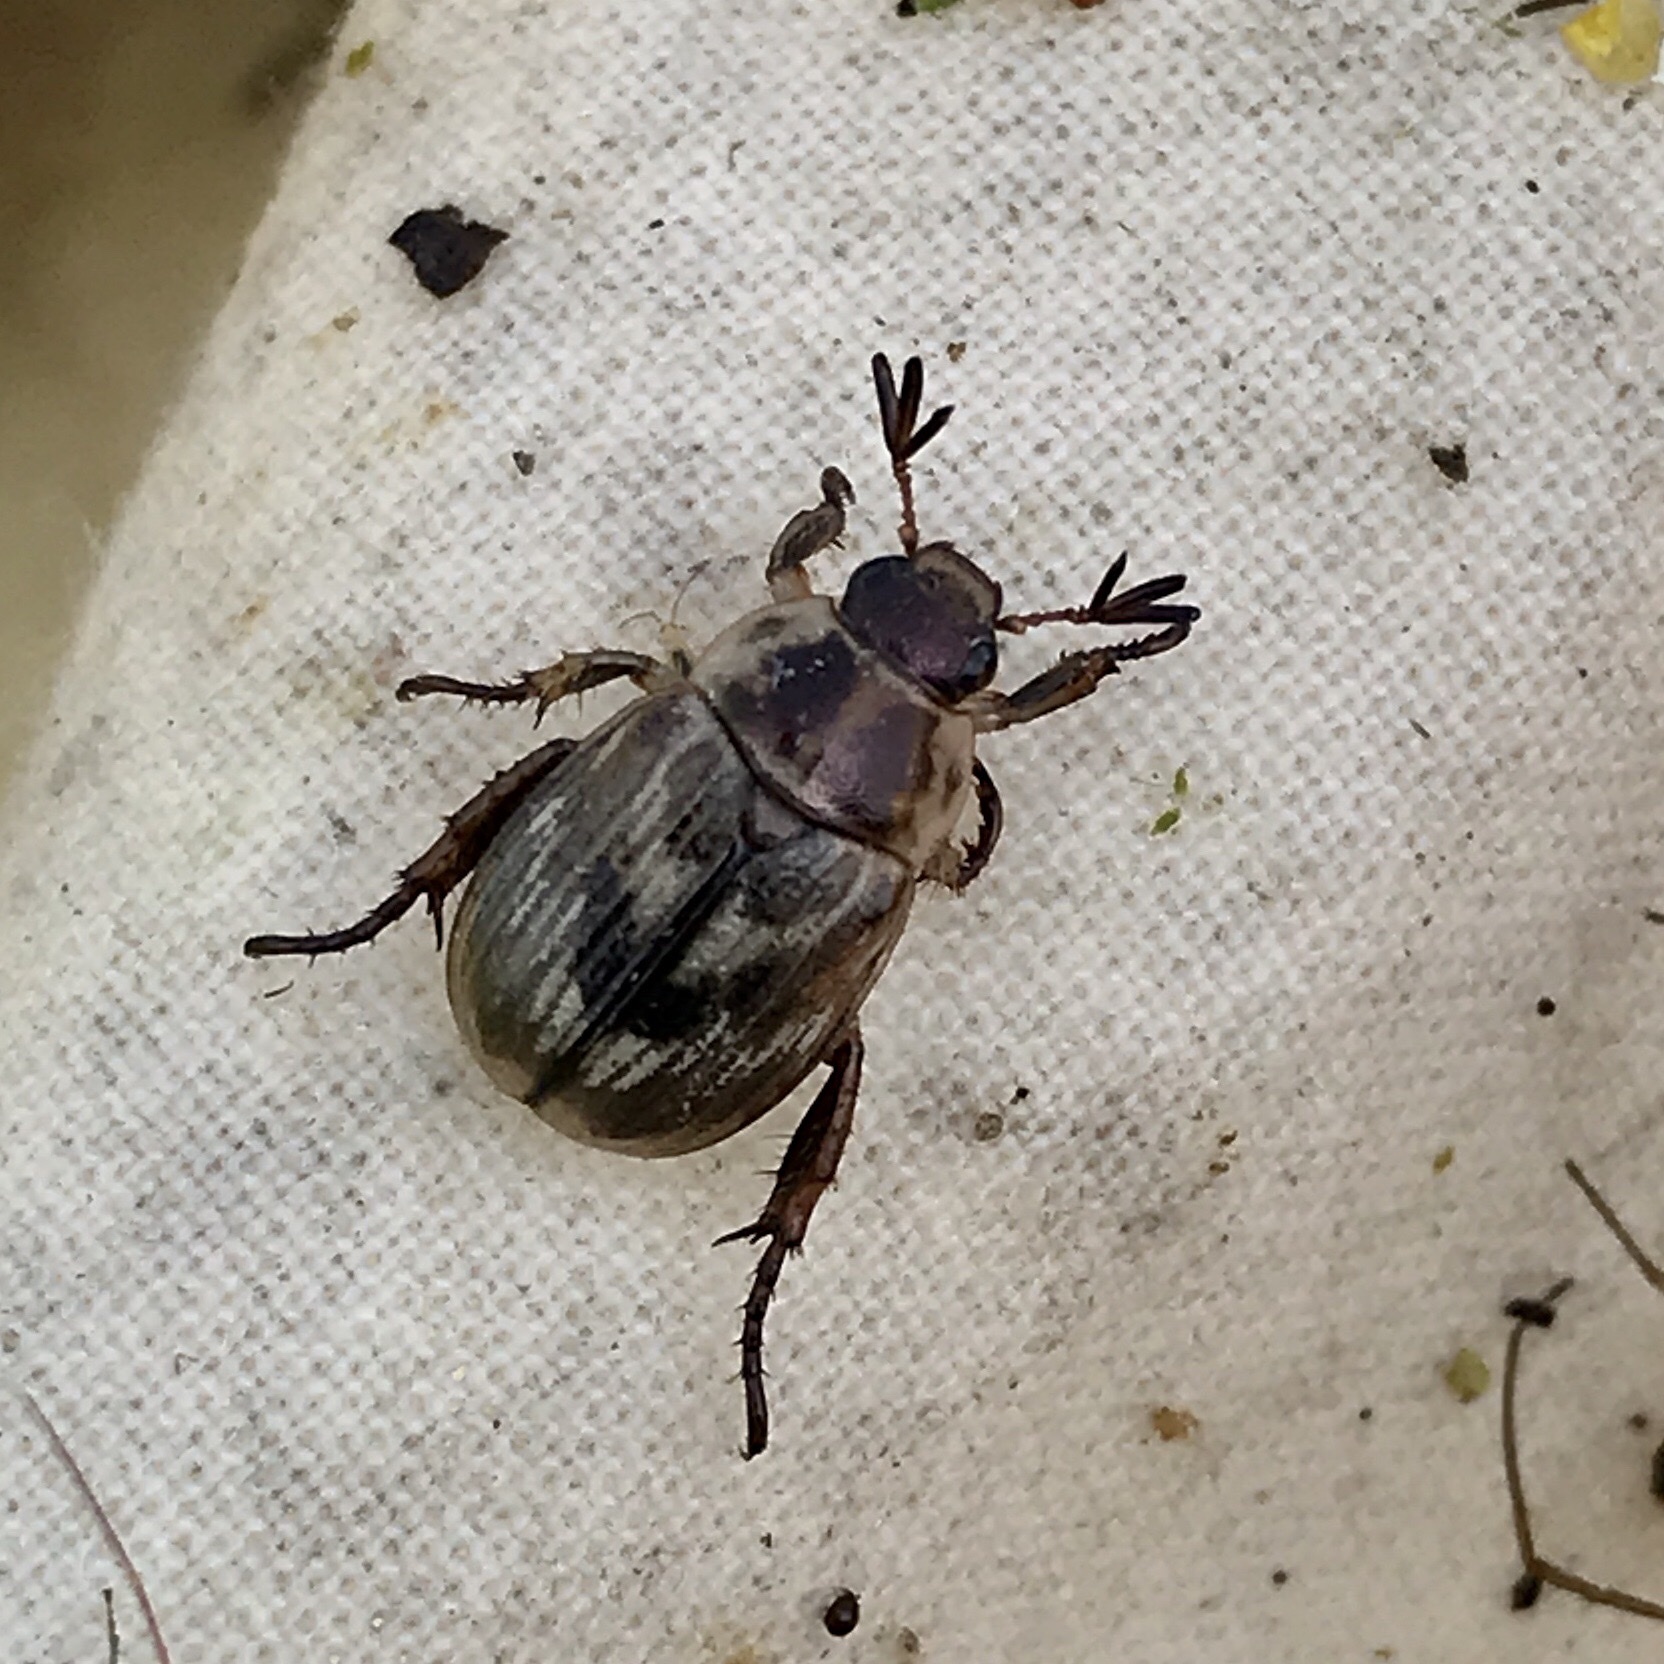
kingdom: Animalia
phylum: Arthropoda
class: Insecta
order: Coleoptera
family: Scarabaeidae
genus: Exomala
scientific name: Exomala orientalis
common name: Oriental beetle
